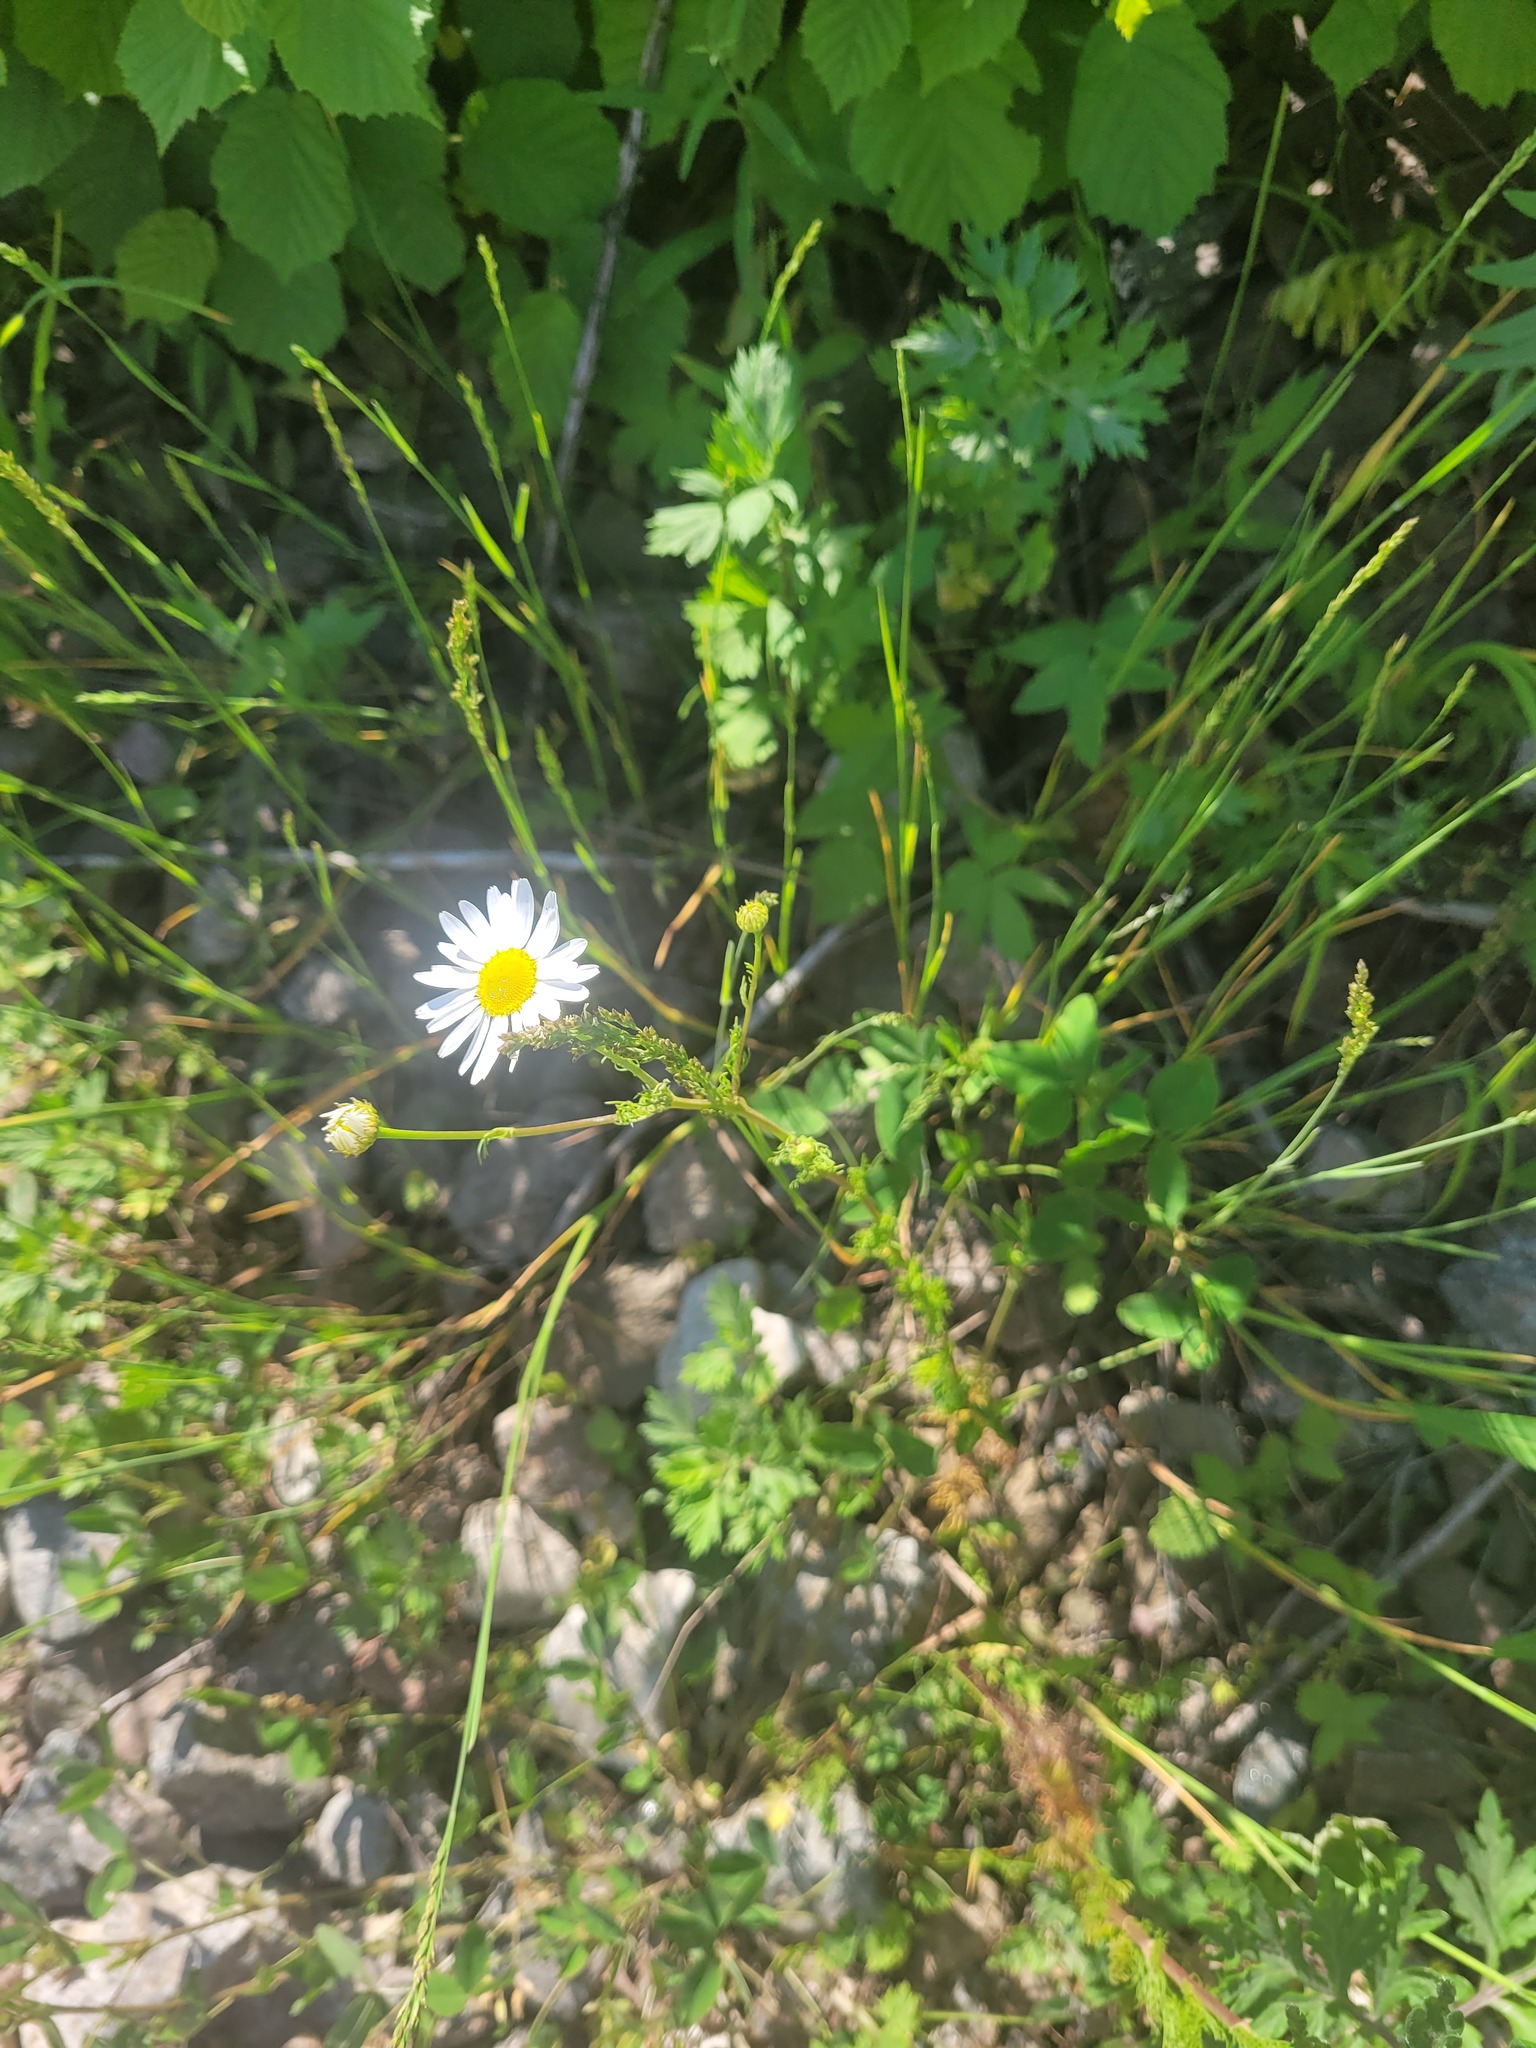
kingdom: Plantae
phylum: Tracheophyta
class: Magnoliopsida
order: Asterales
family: Asteraceae
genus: Tripleurospermum
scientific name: Tripleurospermum inodorum
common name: Scentless mayweed
